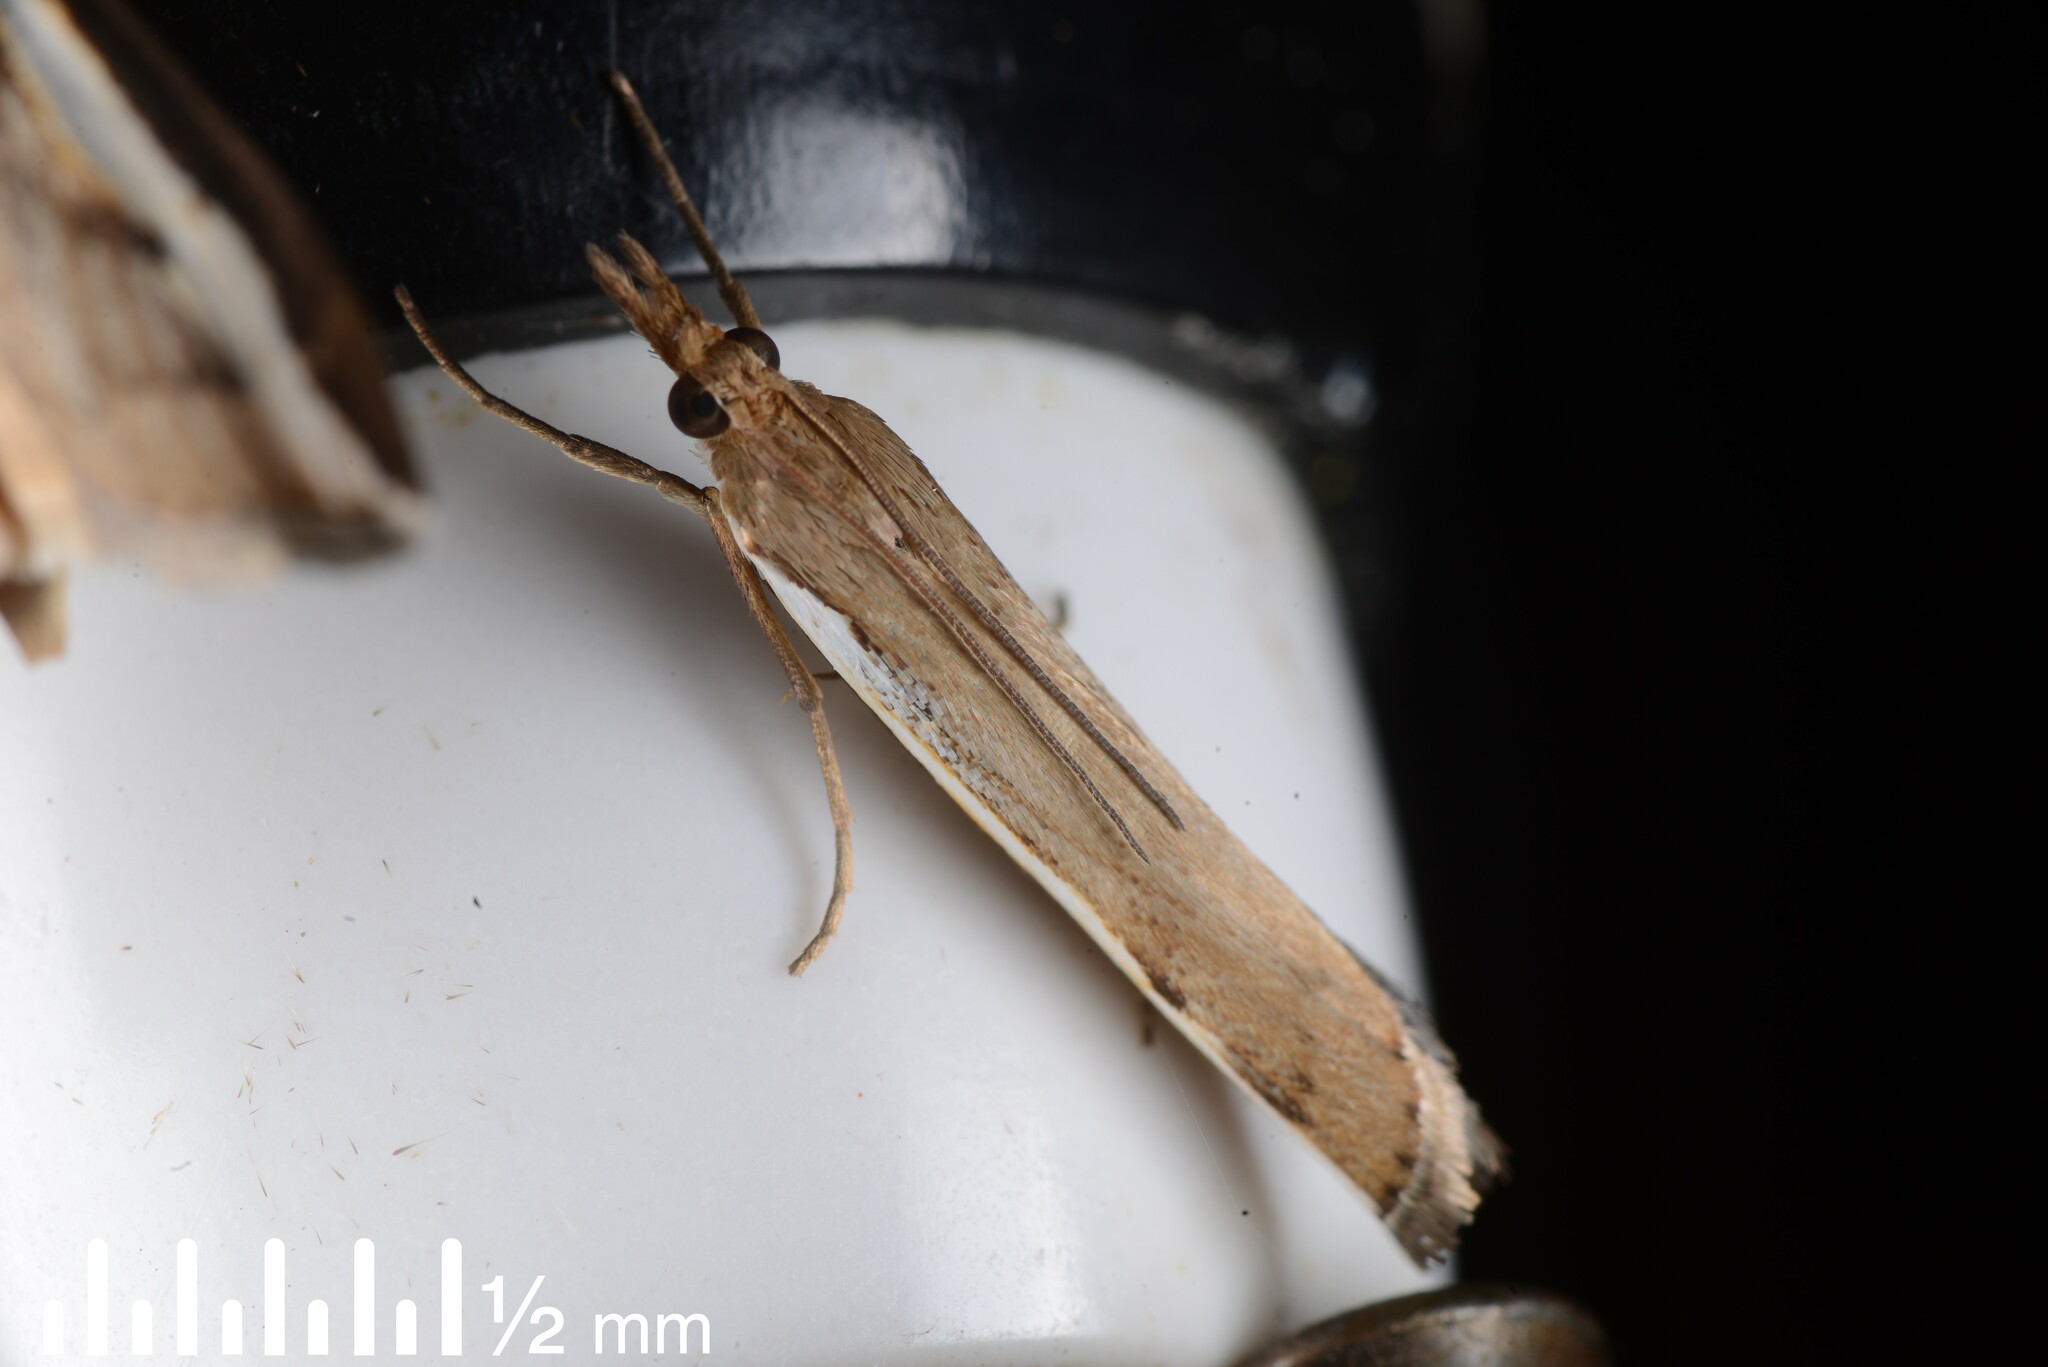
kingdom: Animalia
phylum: Arthropoda
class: Insecta
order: Lepidoptera
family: Crambidae
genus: Orocrambus
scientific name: Orocrambus flexuosellus
